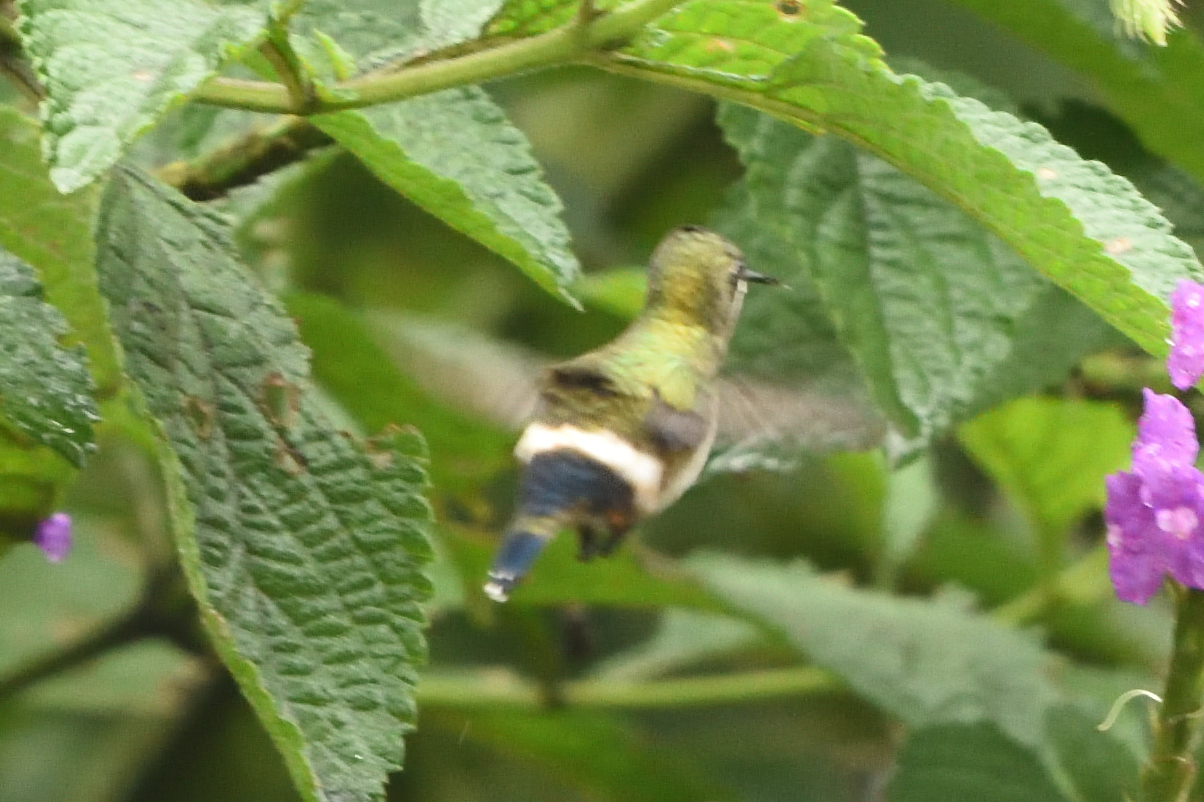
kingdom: Animalia
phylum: Chordata
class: Aves
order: Apodiformes
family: Trochilidae
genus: Discosura
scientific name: Discosura popelairii
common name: Wire-crested thorntail
